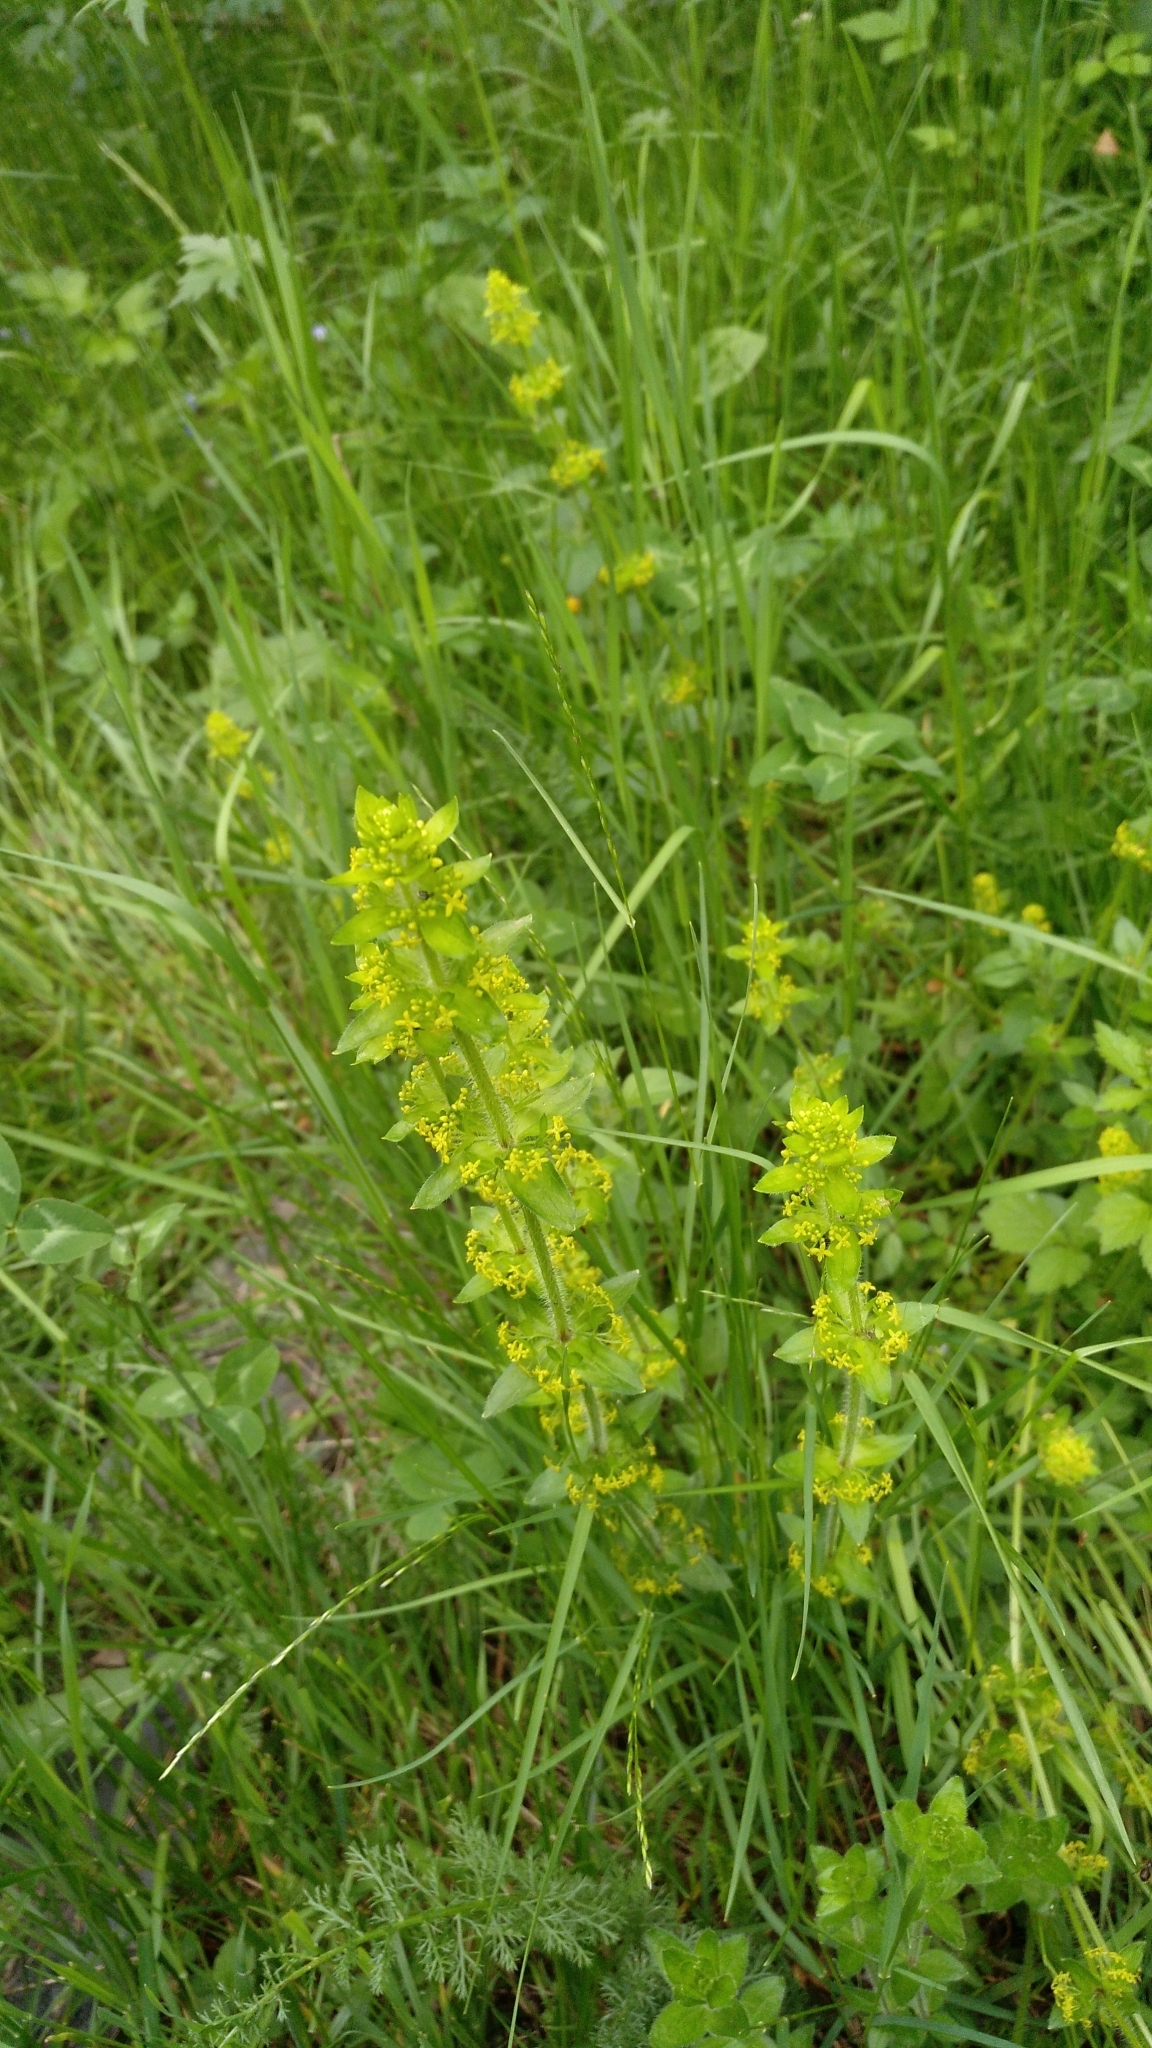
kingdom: Plantae
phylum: Tracheophyta
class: Magnoliopsida
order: Gentianales
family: Rubiaceae
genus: Cruciata
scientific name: Cruciata laevipes
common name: Crosswort
